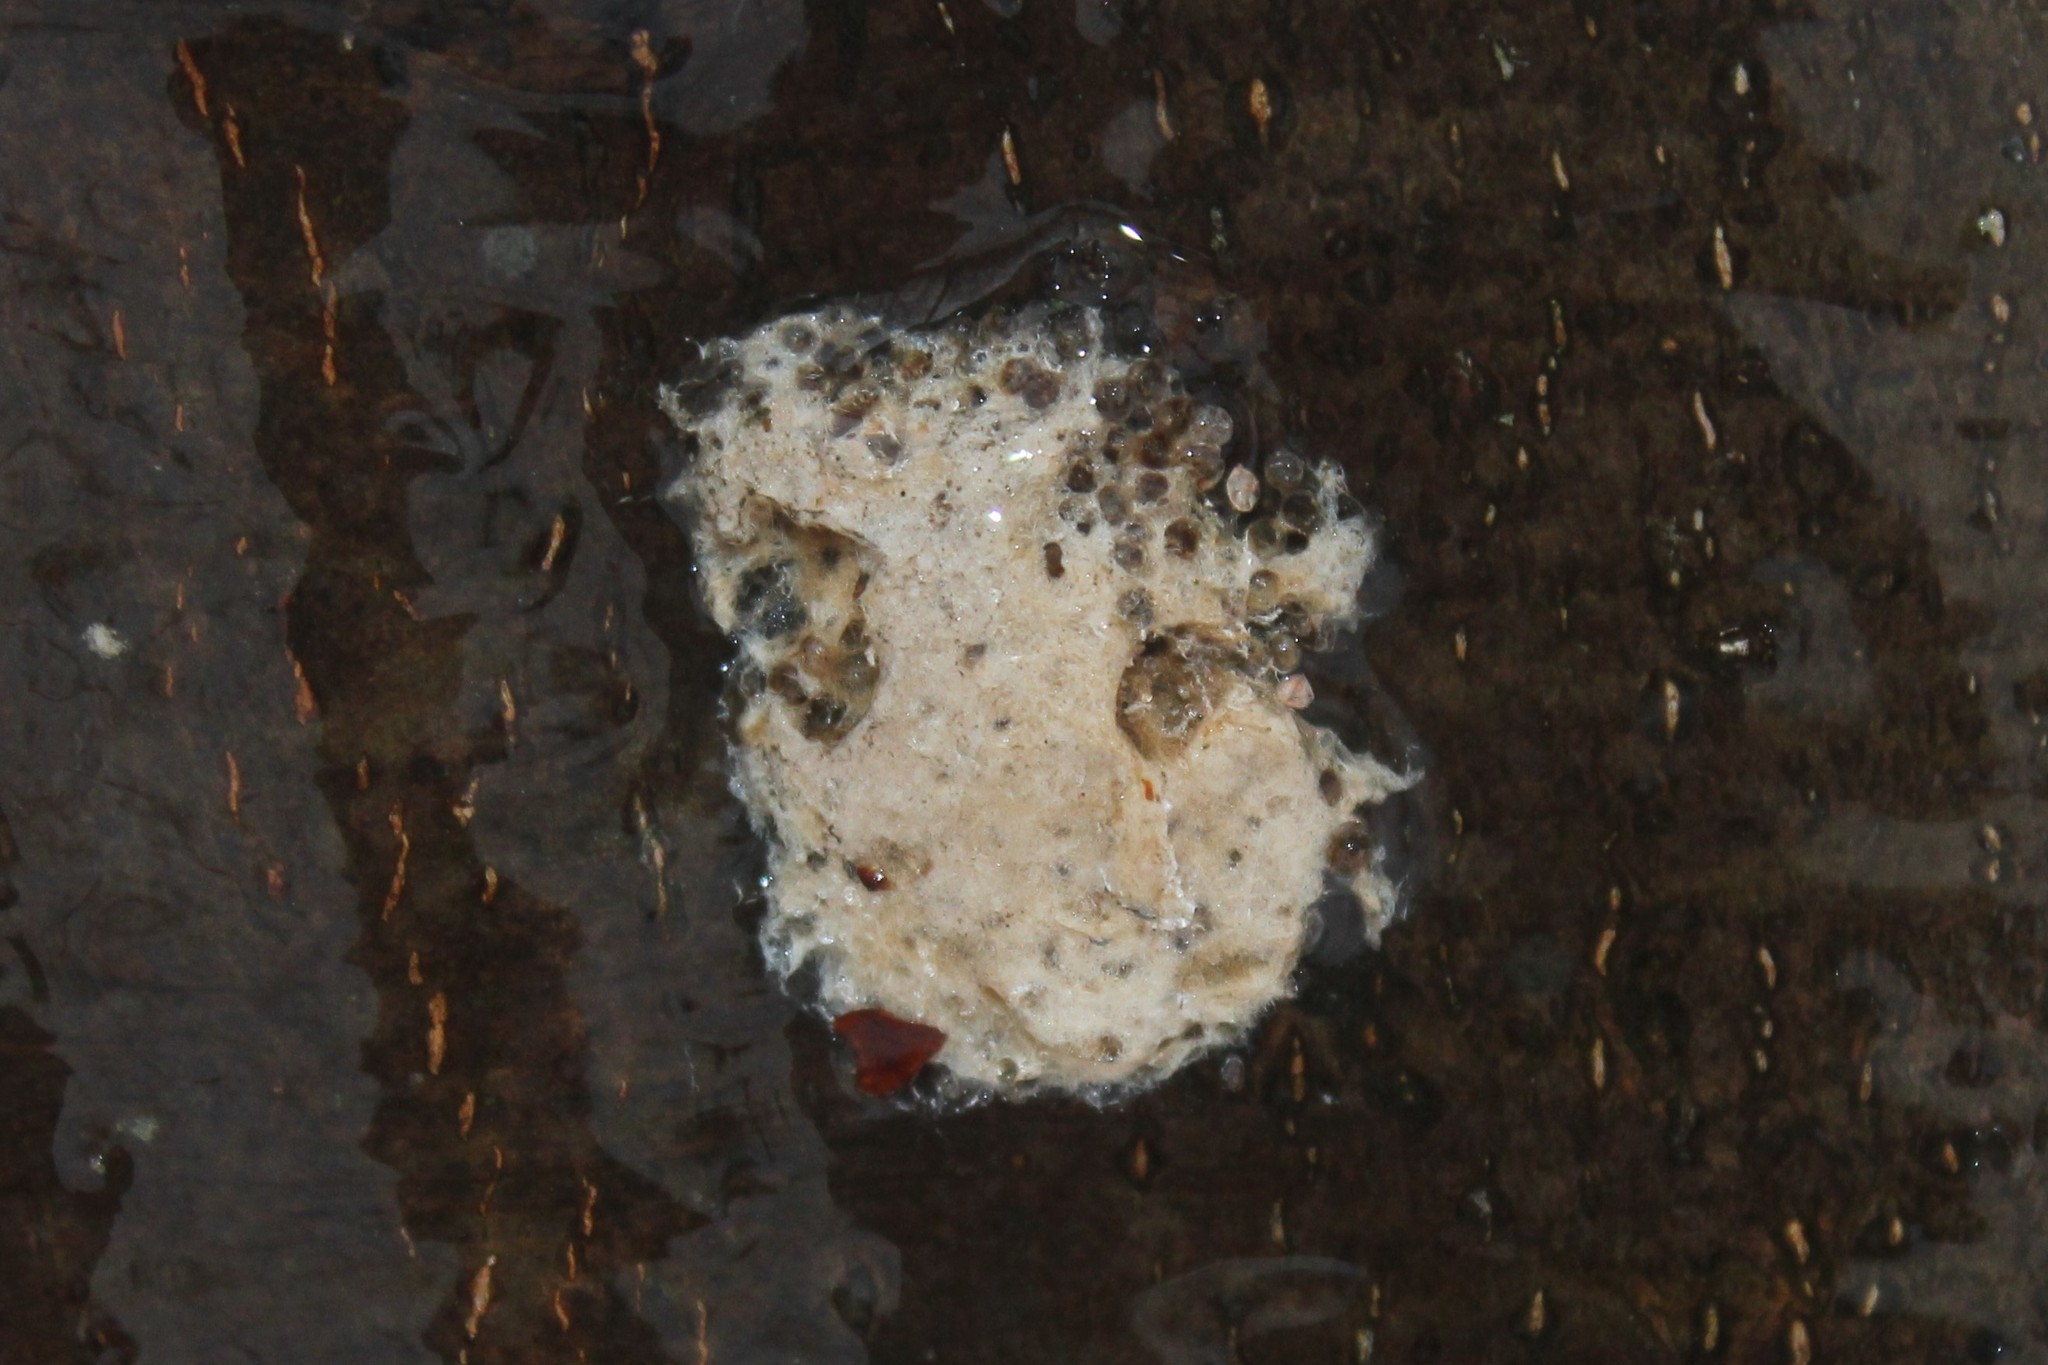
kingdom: Animalia
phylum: Arthropoda
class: Insecta
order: Lepidoptera
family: Erebidae
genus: Lymantria
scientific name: Lymantria dispar
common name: Gypsy moth
